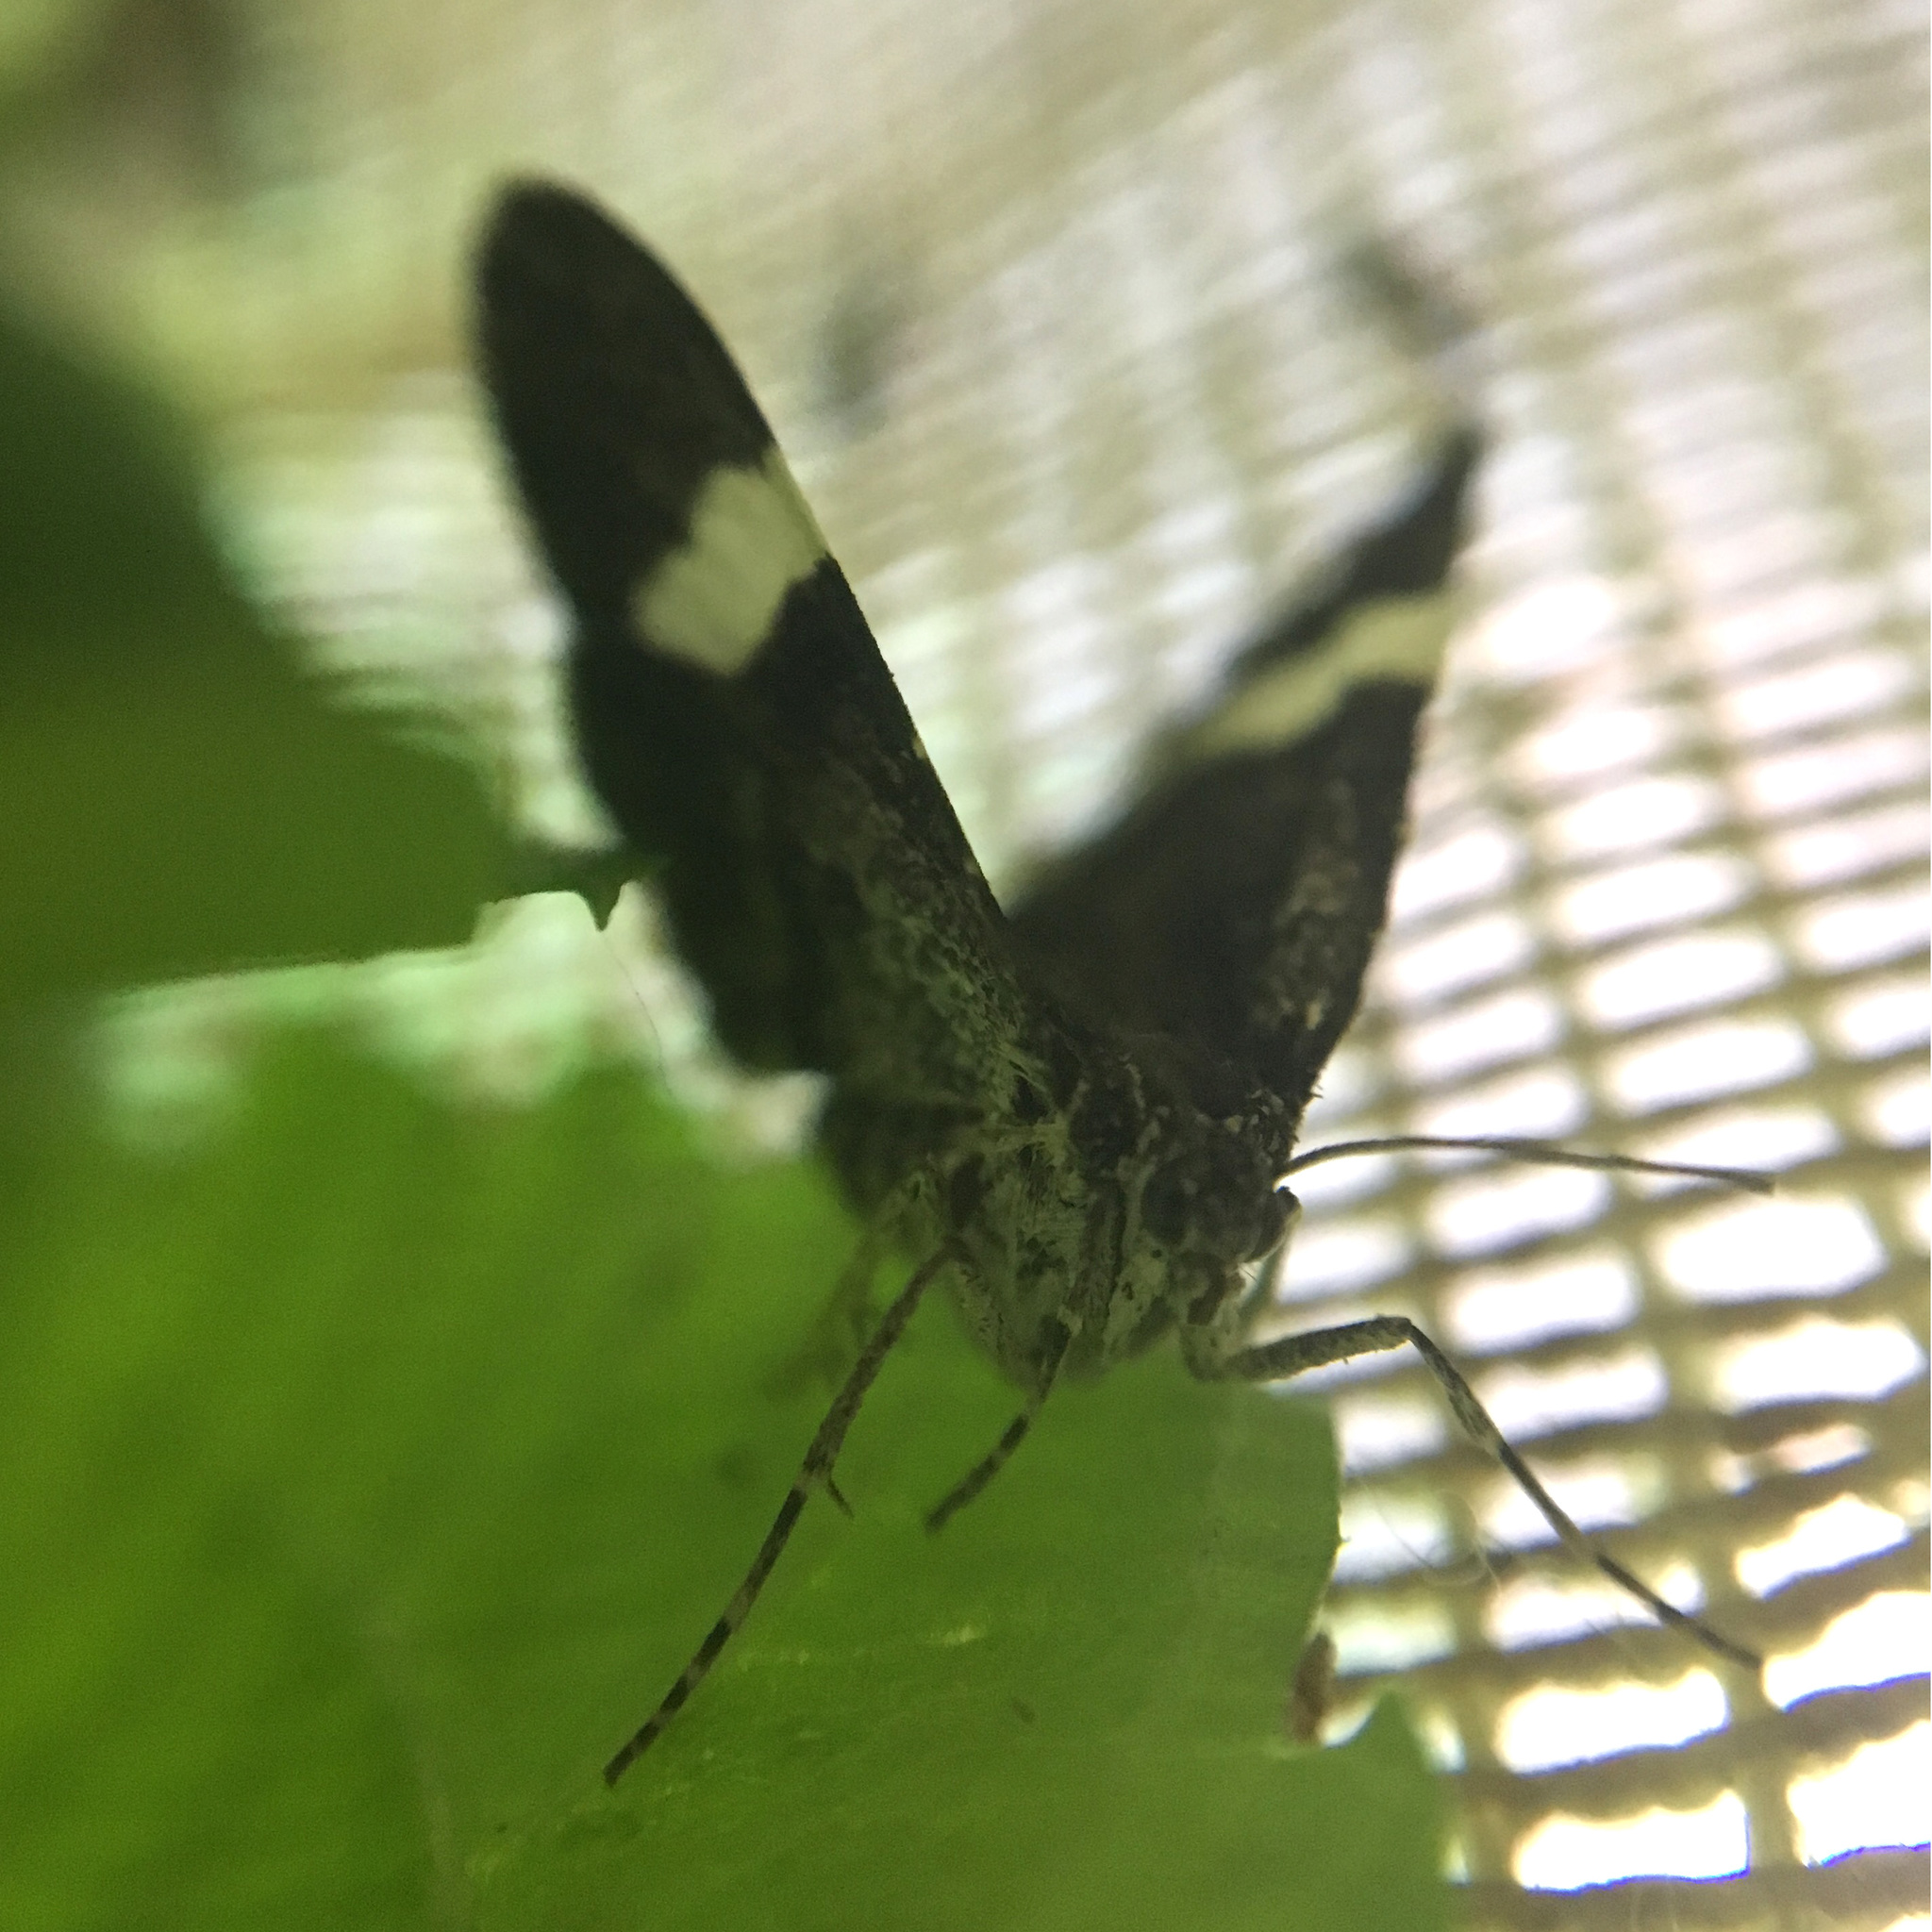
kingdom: Animalia
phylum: Arthropoda
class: Insecta
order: Lepidoptera
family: Geometridae
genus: Trichodezia
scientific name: Trichodezia albovittata
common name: White striped black
